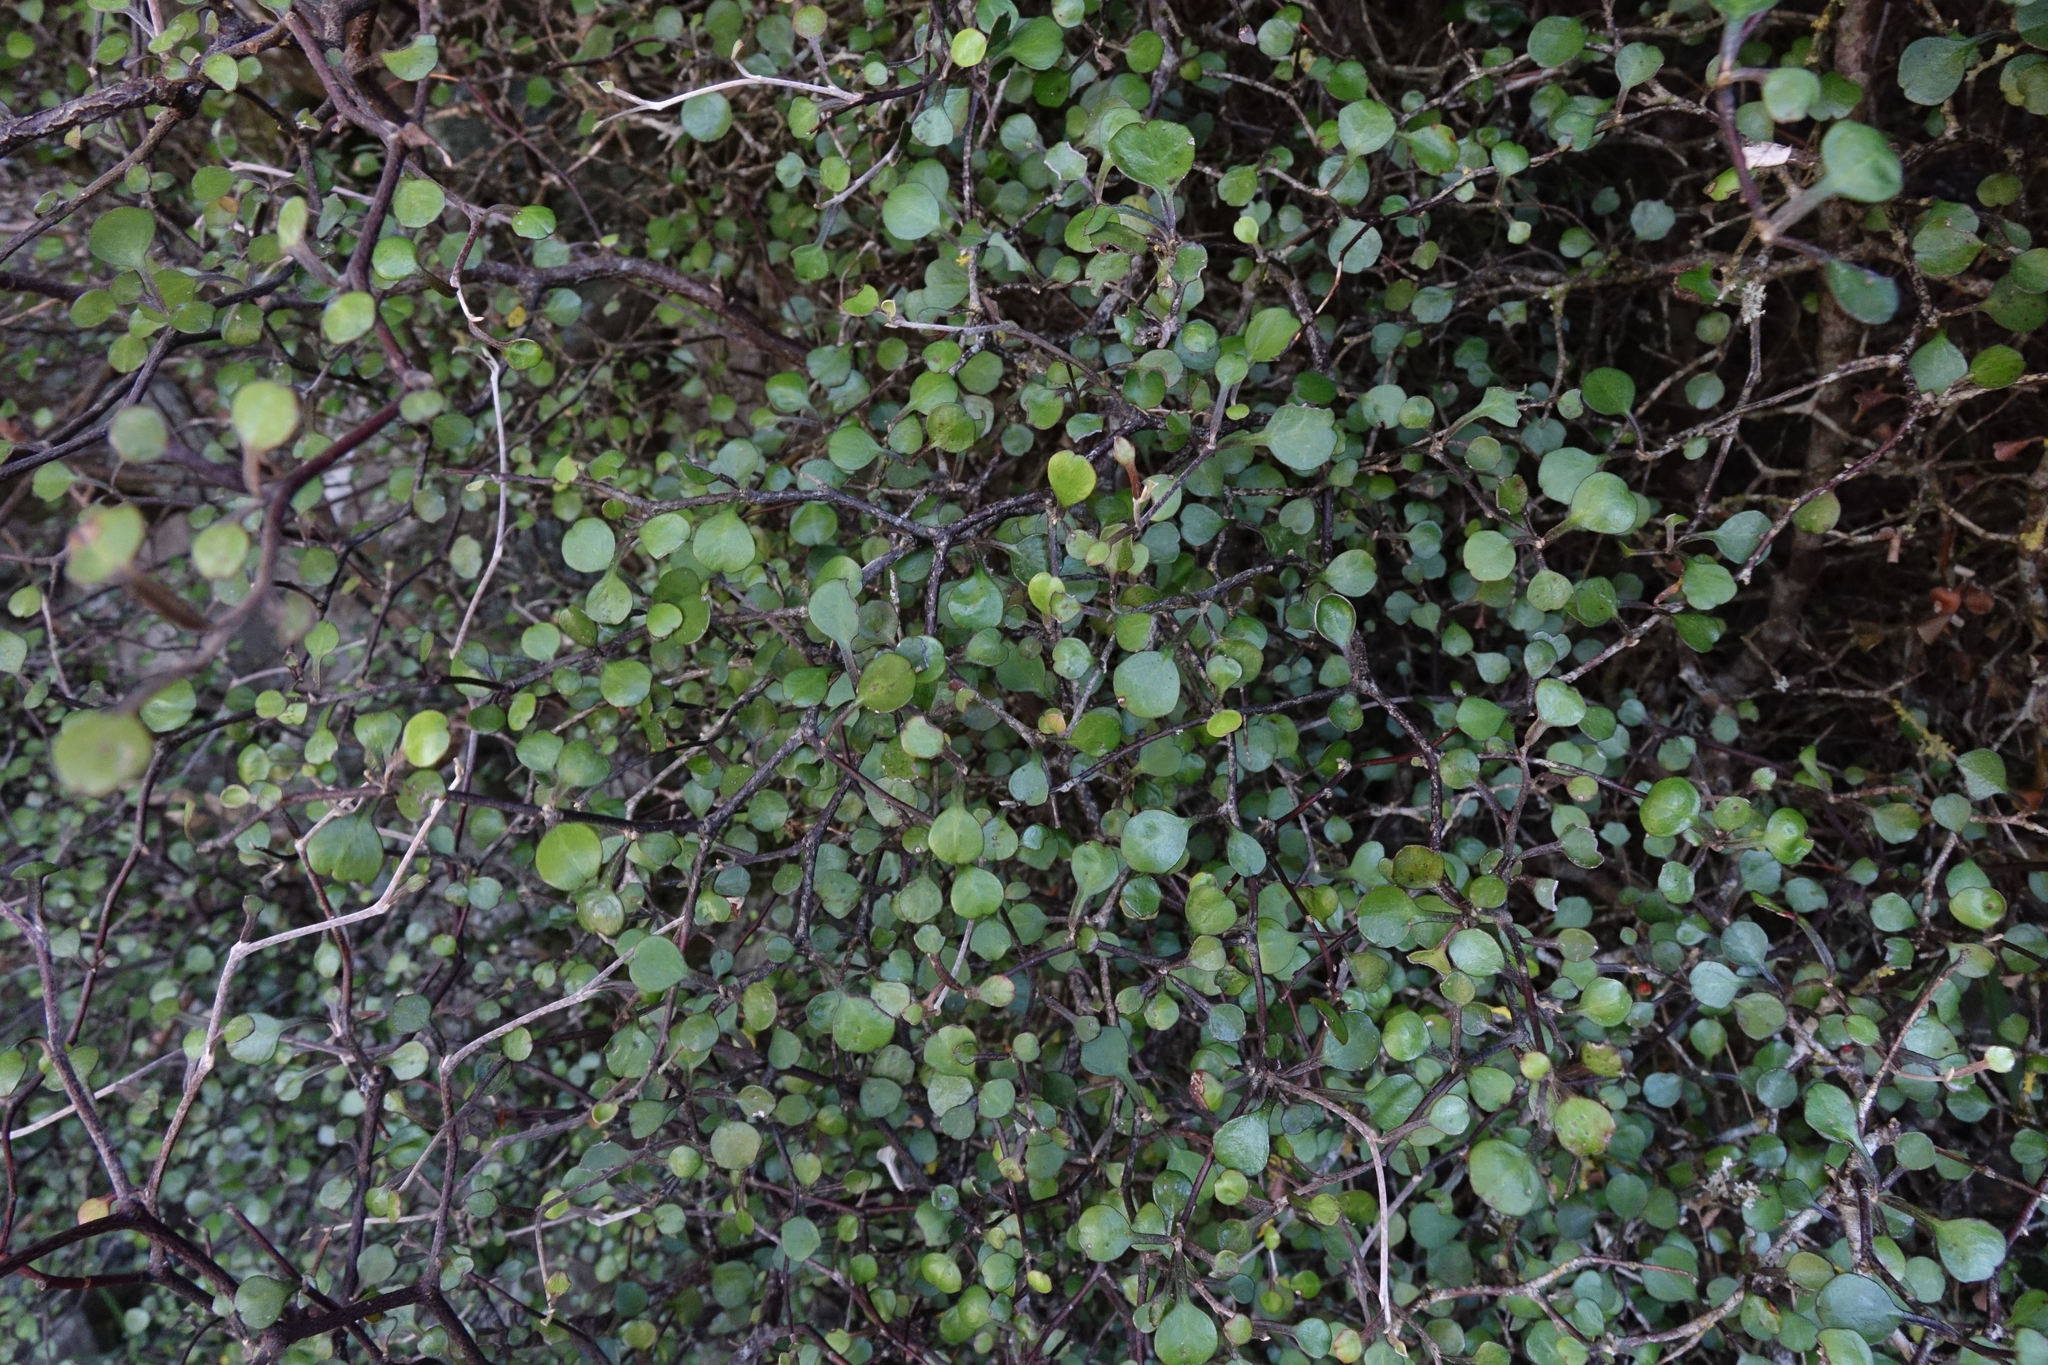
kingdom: Plantae
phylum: Tracheophyta
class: Magnoliopsida
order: Asterales
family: Argophyllaceae
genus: Corokia
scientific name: Corokia cotoneaster
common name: Wire nettingbush
